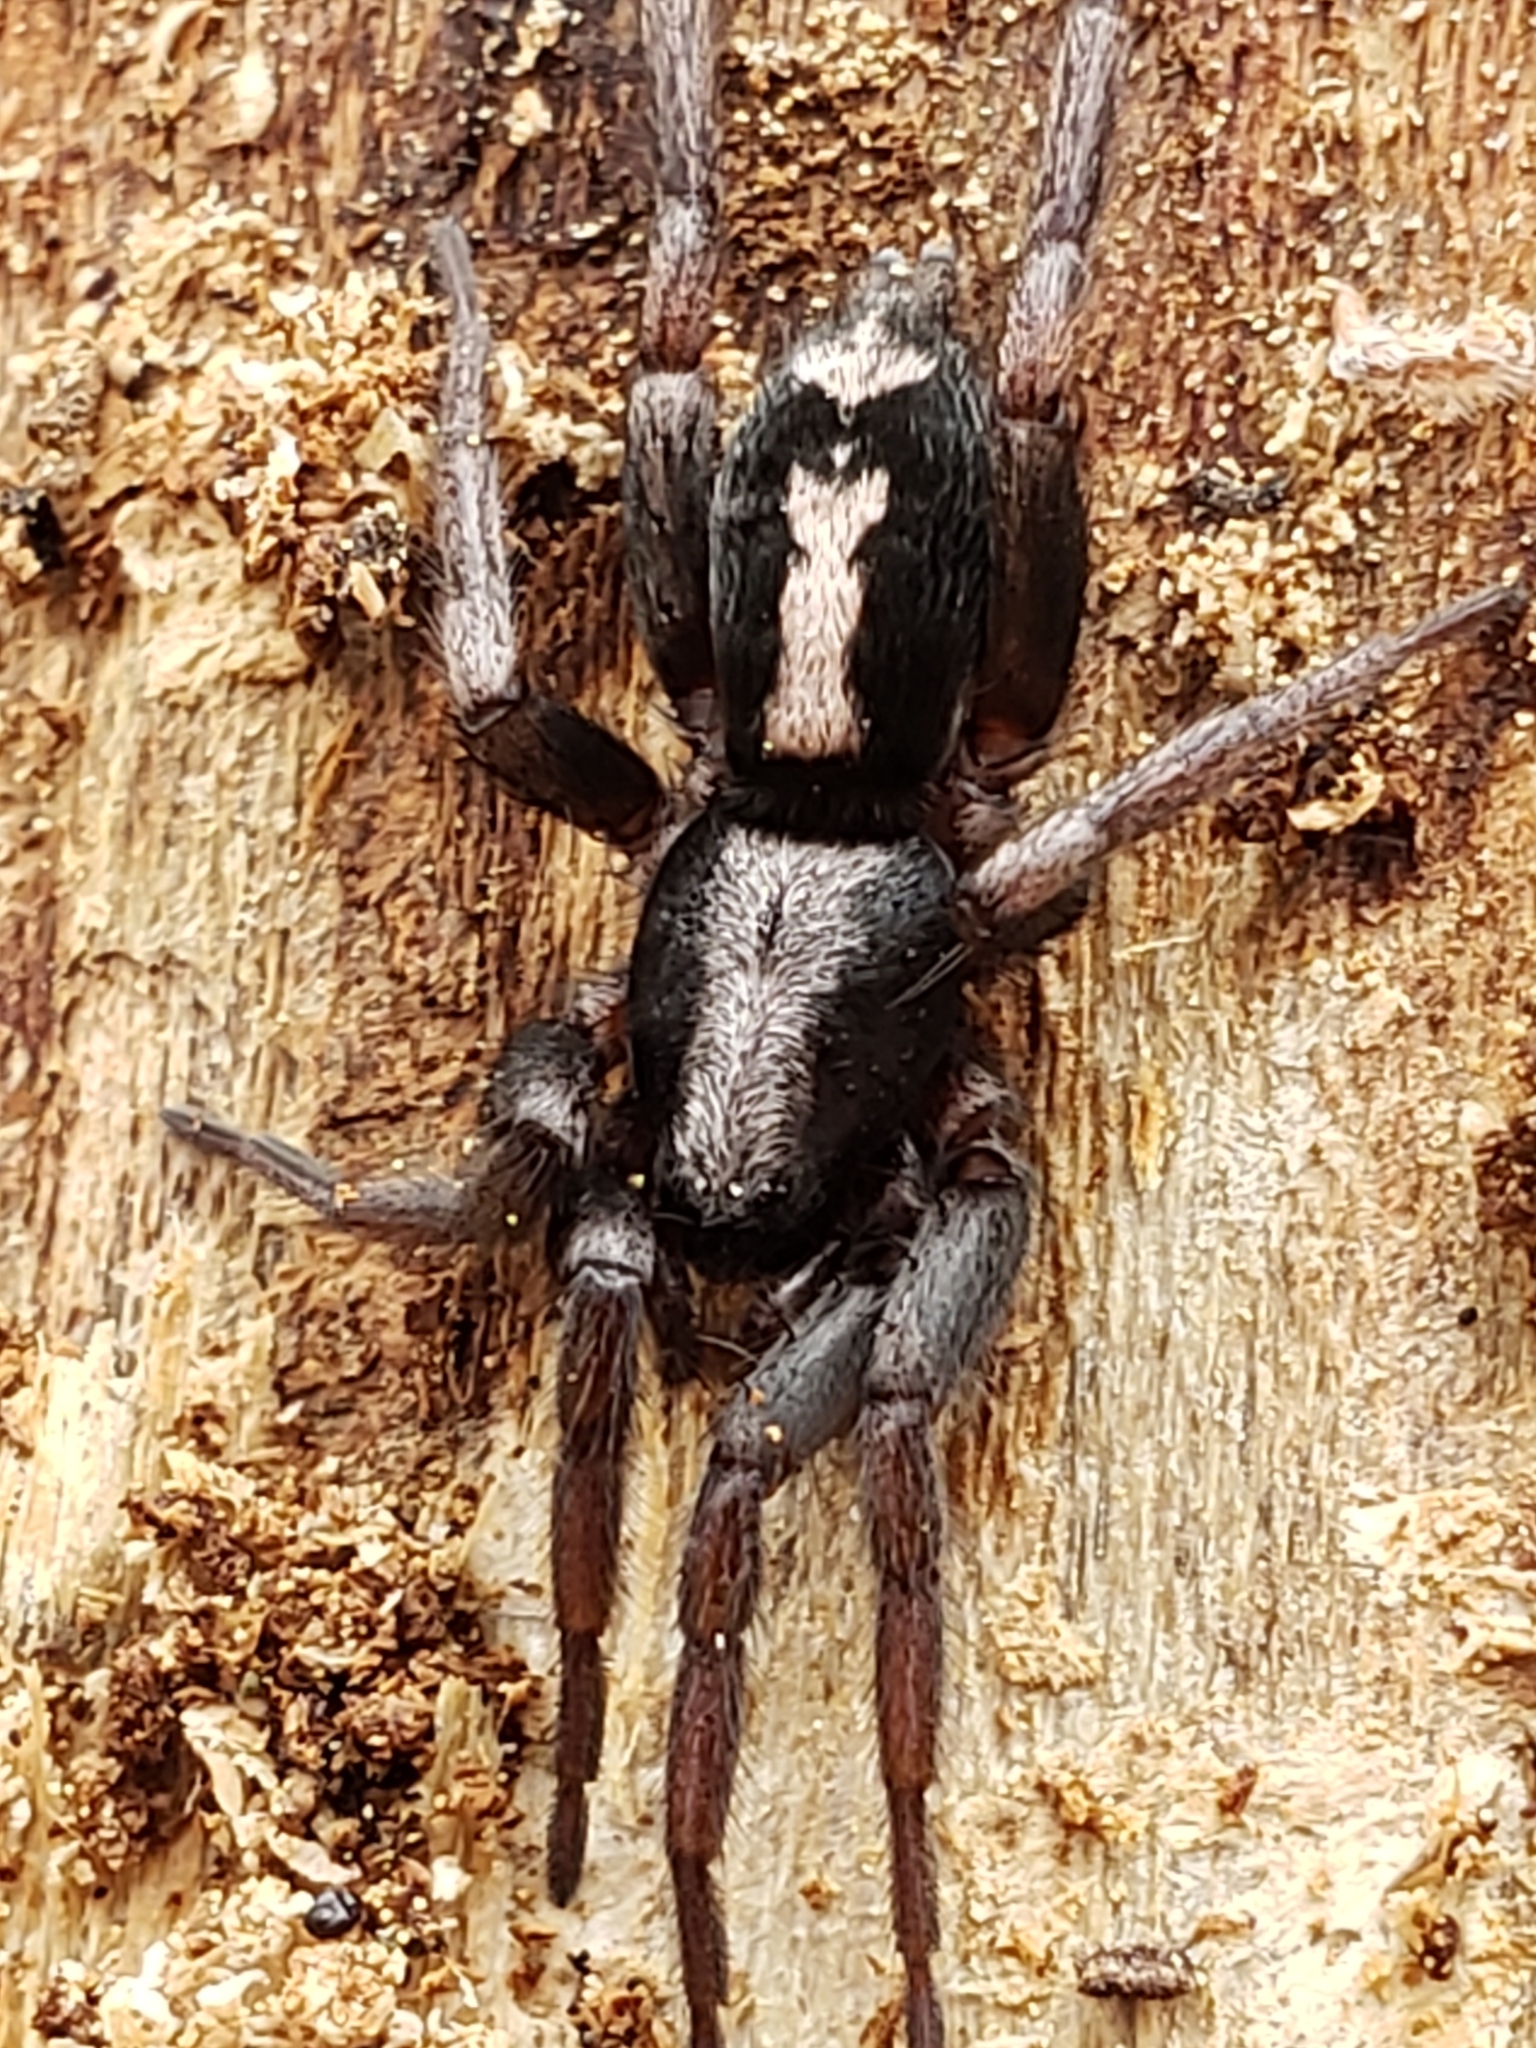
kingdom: Animalia
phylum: Arthropoda
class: Arachnida
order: Araneae
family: Gnaphosidae
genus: Herpyllus
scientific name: Herpyllus ecclesiasticus
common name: Eastern parson spider
